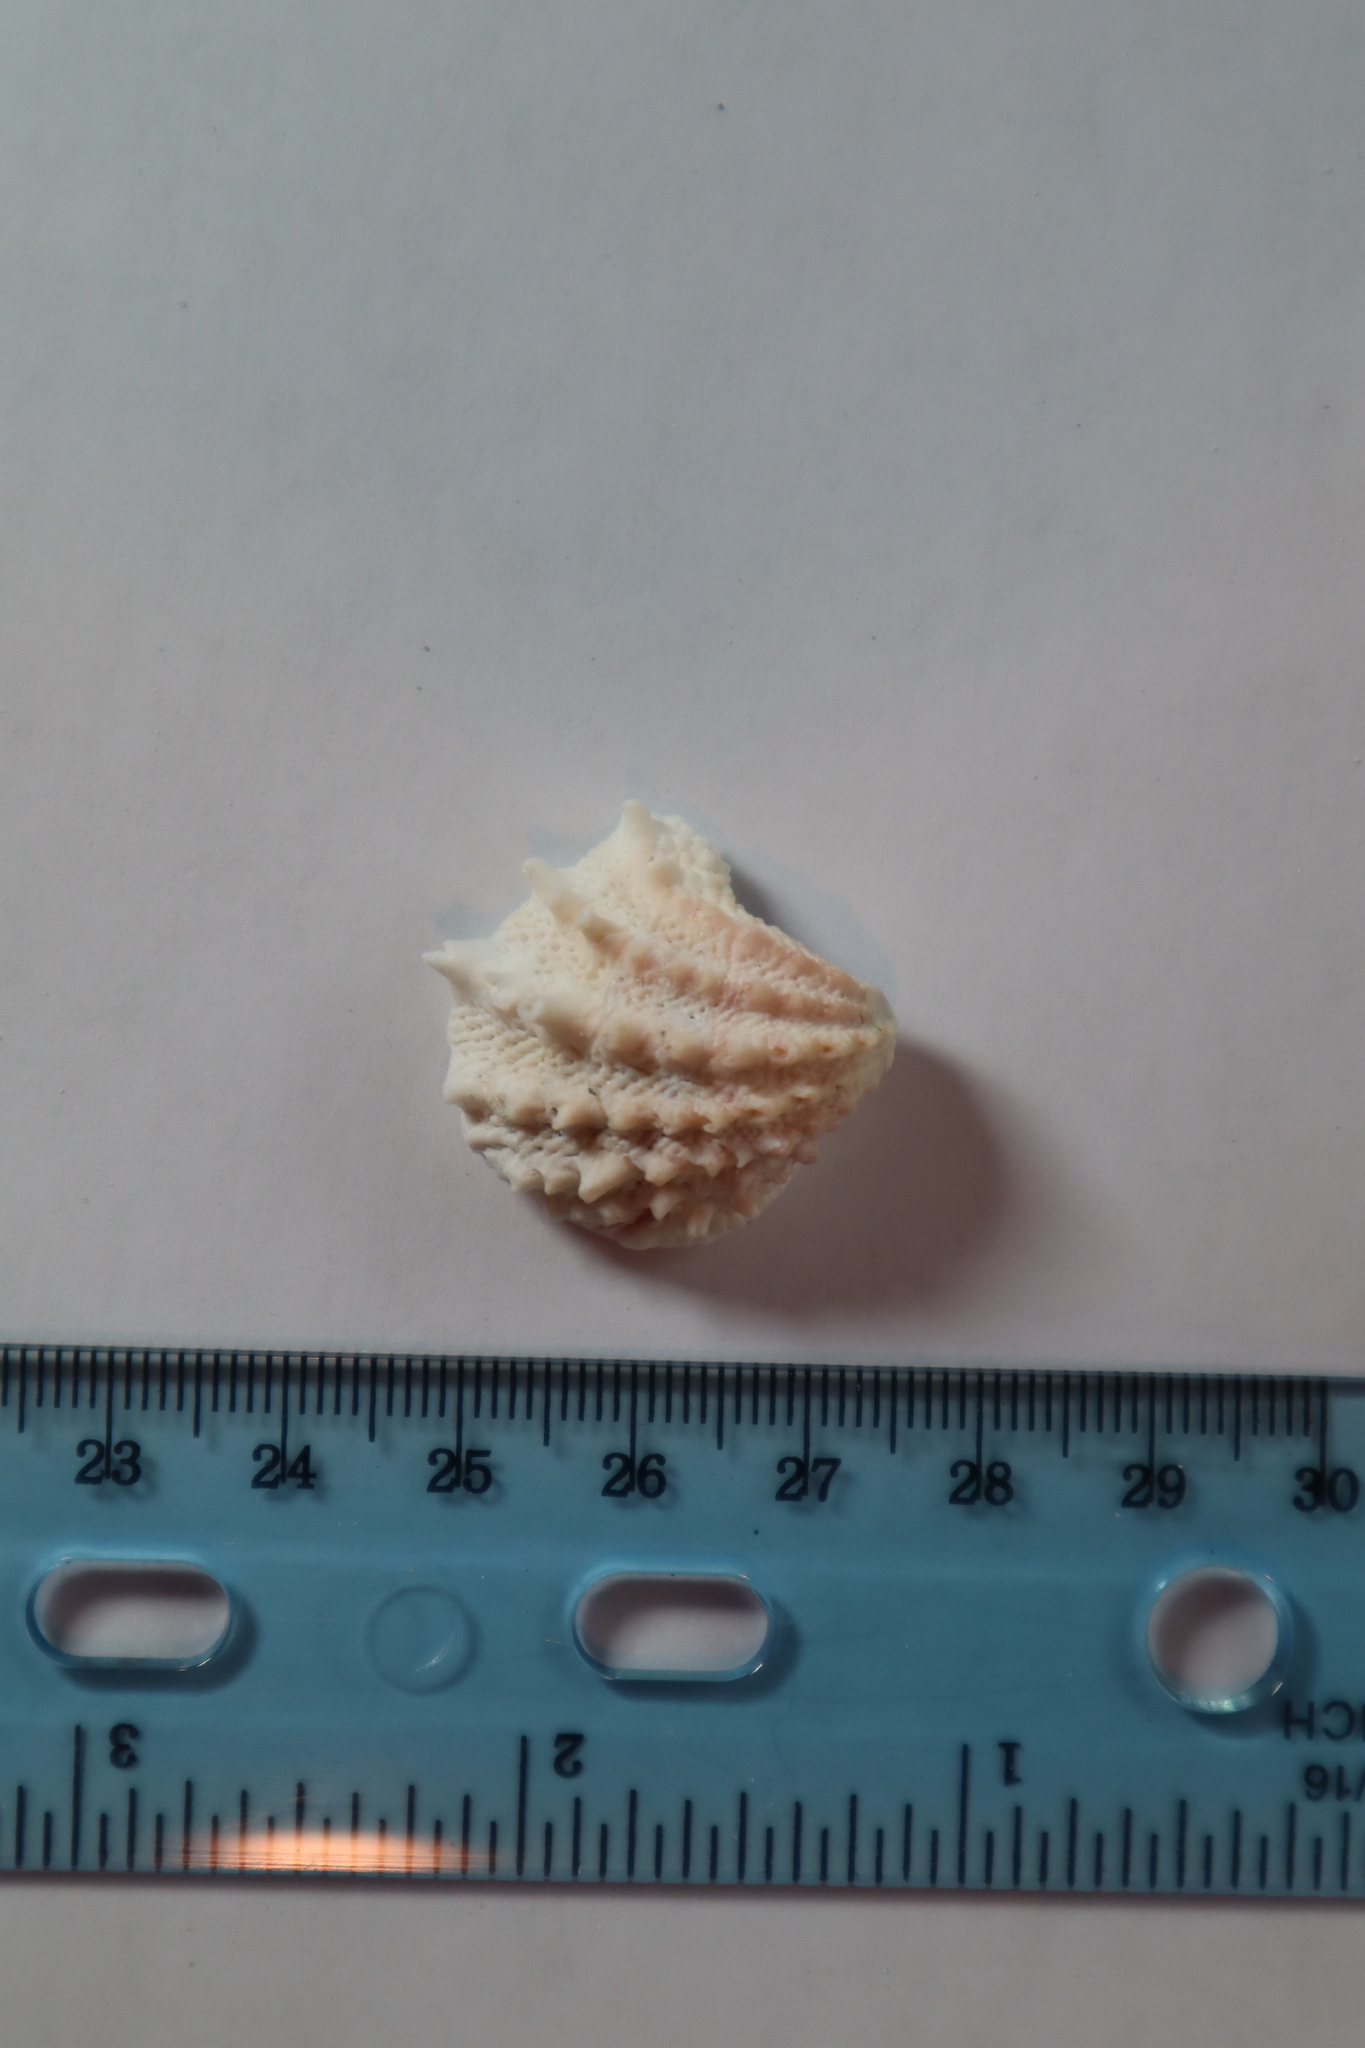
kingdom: Animalia
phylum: Mollusca
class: Bivalvia
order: Venerida
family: Chamidae
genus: Arcinella
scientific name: Arcinella cornuta
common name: Florida spiny jewel box
